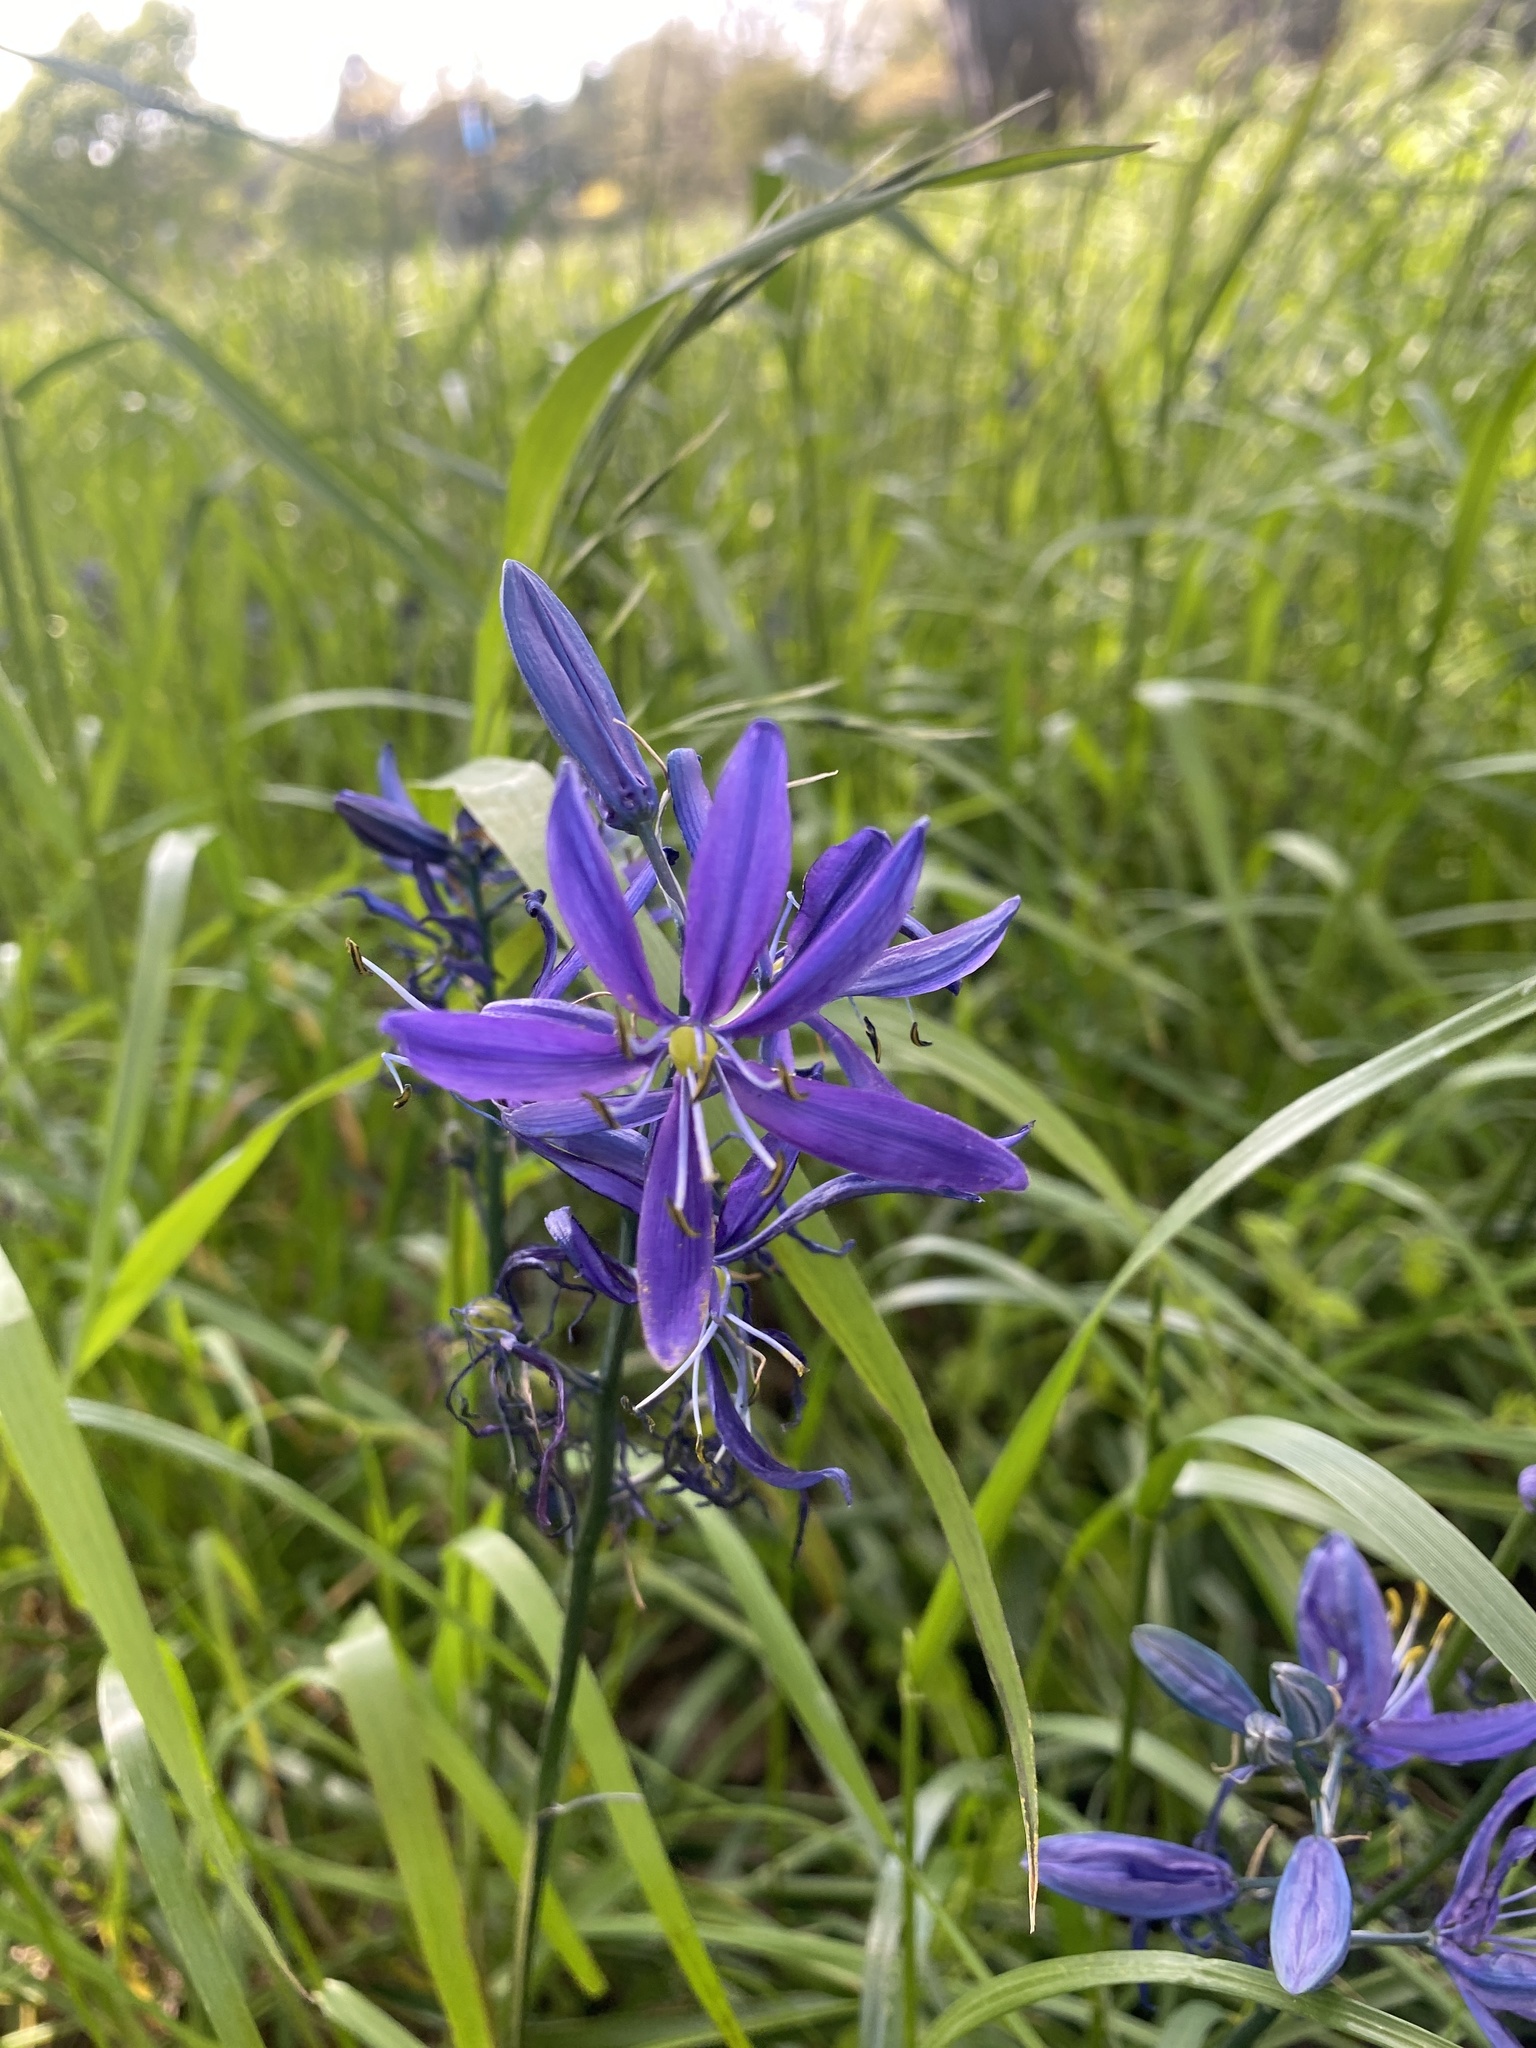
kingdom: Plantae
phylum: Tracheophyta
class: Liliopsida
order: Asparagales
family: Asparagaceae
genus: Camassia
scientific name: Camassia quamash
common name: Common camas
